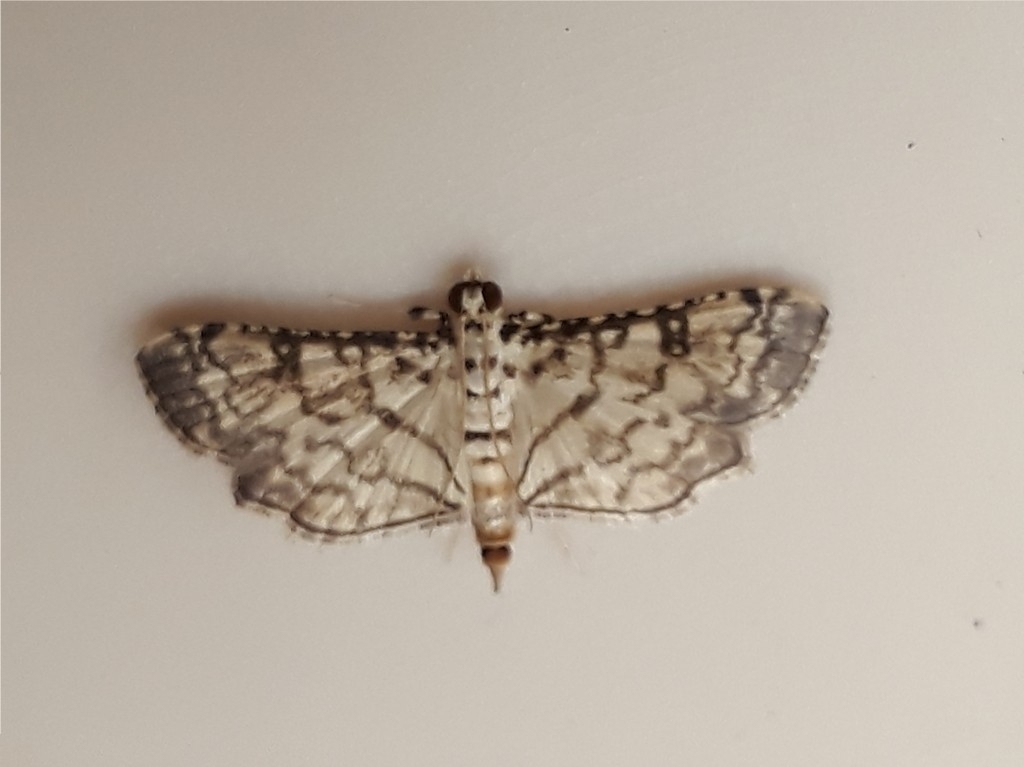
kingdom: Animalia
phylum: Arthropoda
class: Insecta
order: Lepidoptera
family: Crambidae
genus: Hileithia
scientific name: Hileithia approprialis
